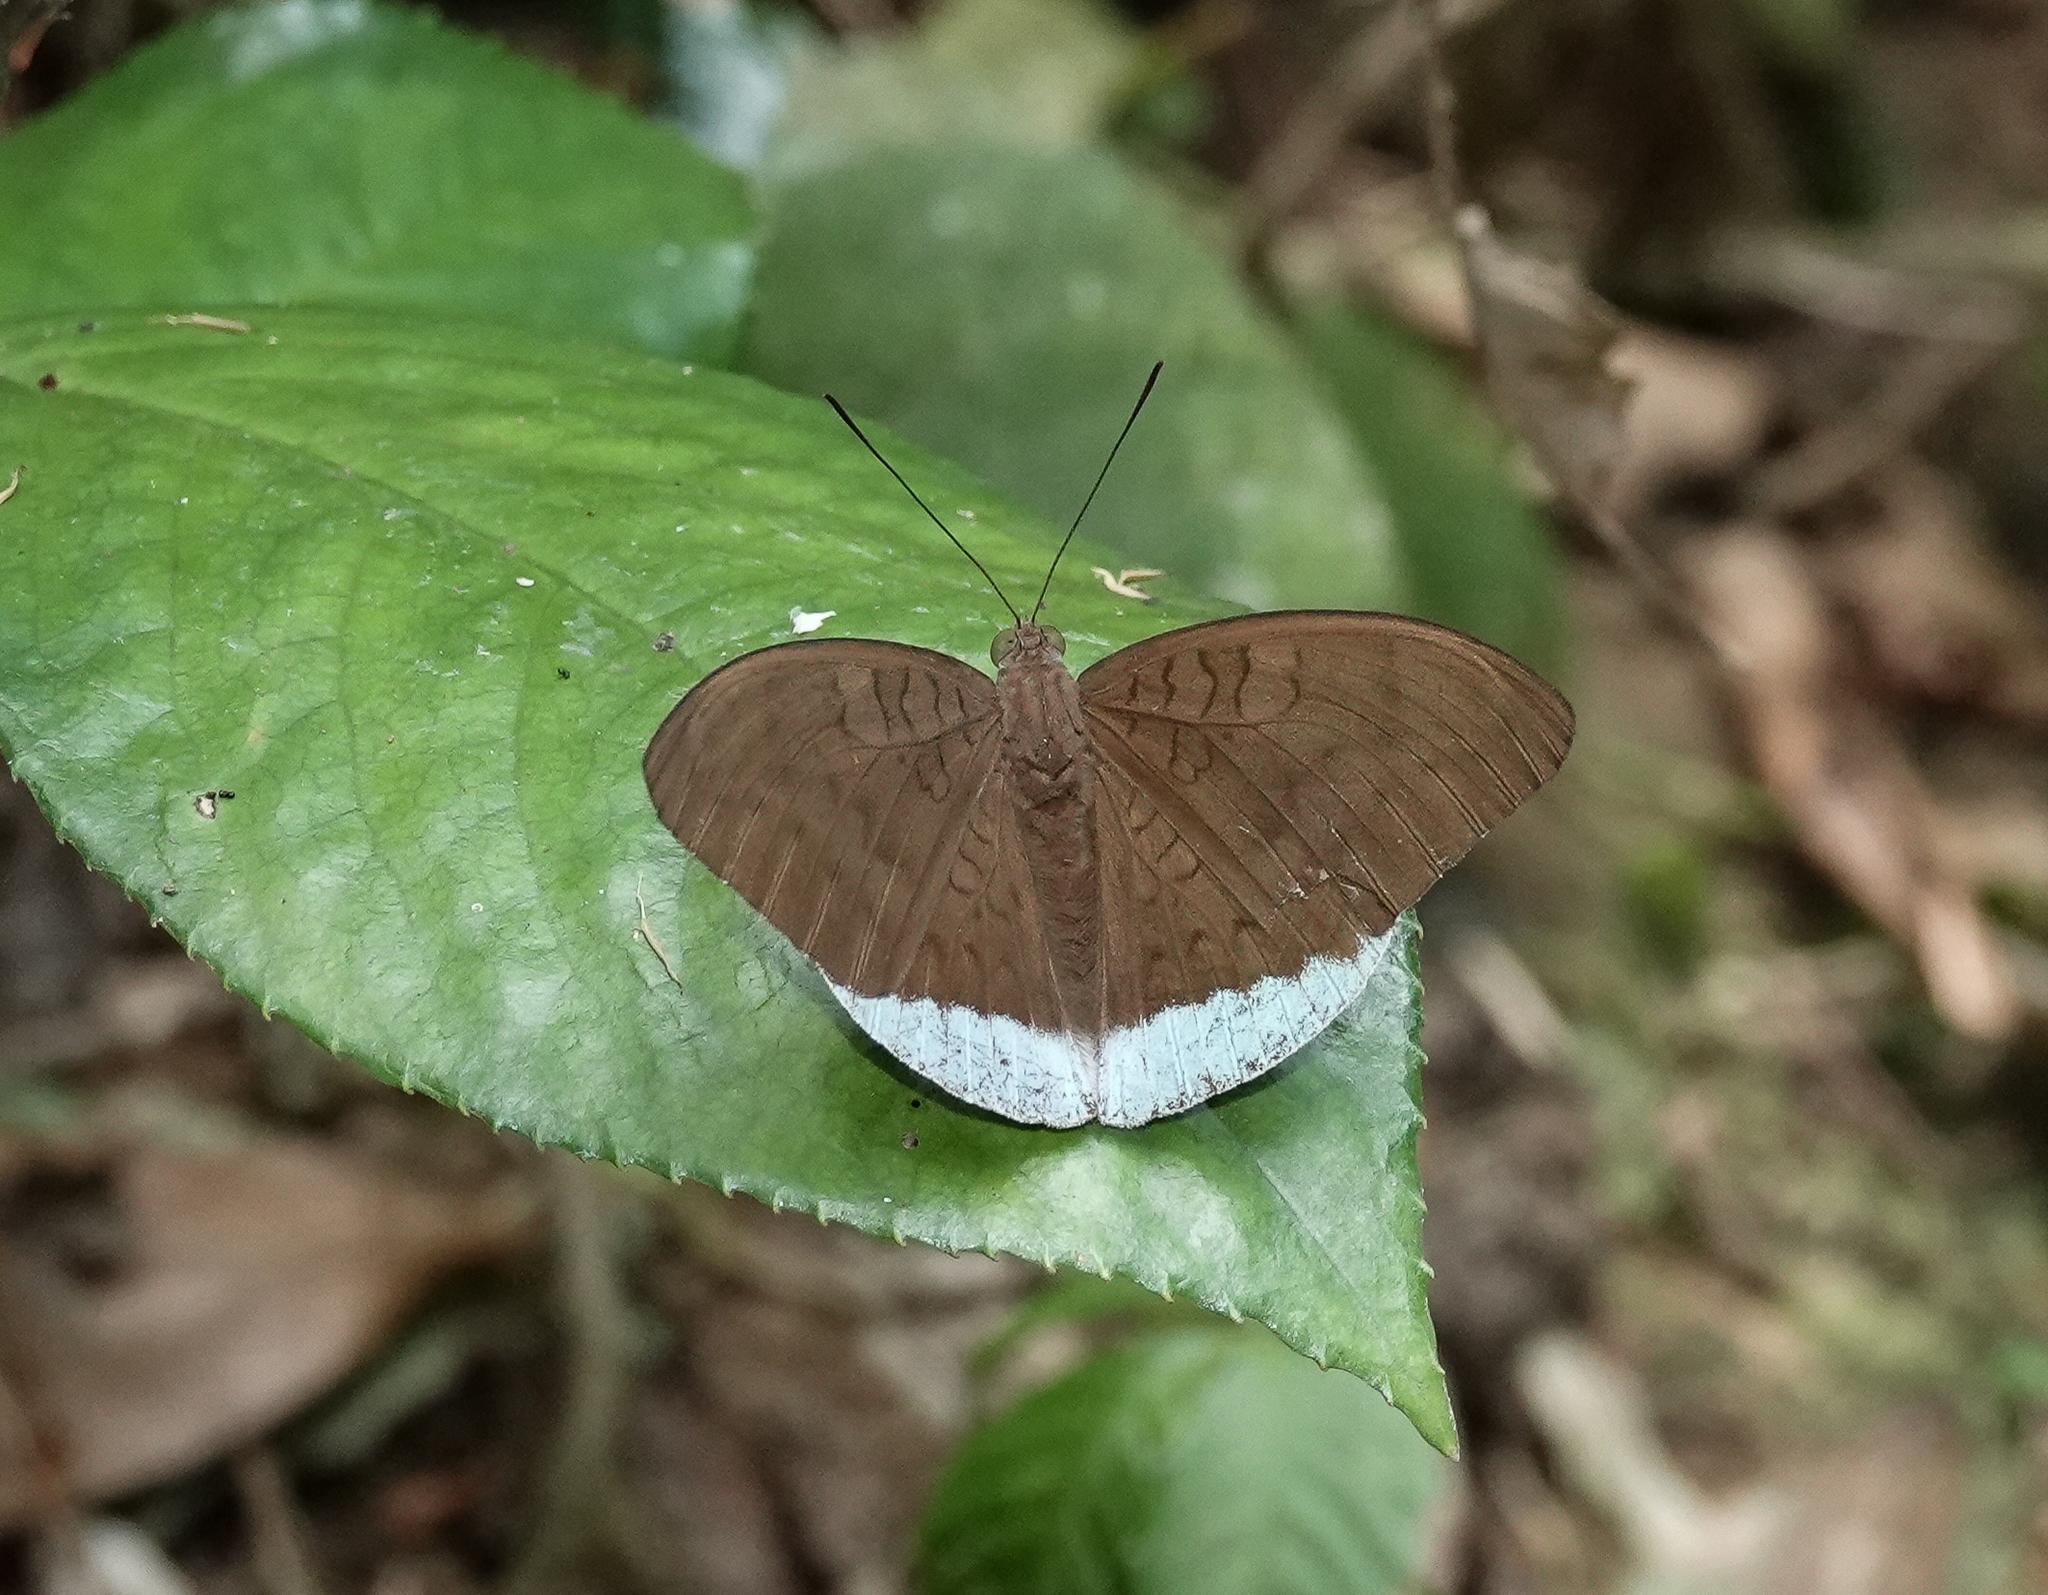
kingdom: Animalia
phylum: Arthropoda
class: Insecta
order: Lepidoptera
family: Nymphalidae
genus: Tanaecia
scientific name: Tanaecia julii
